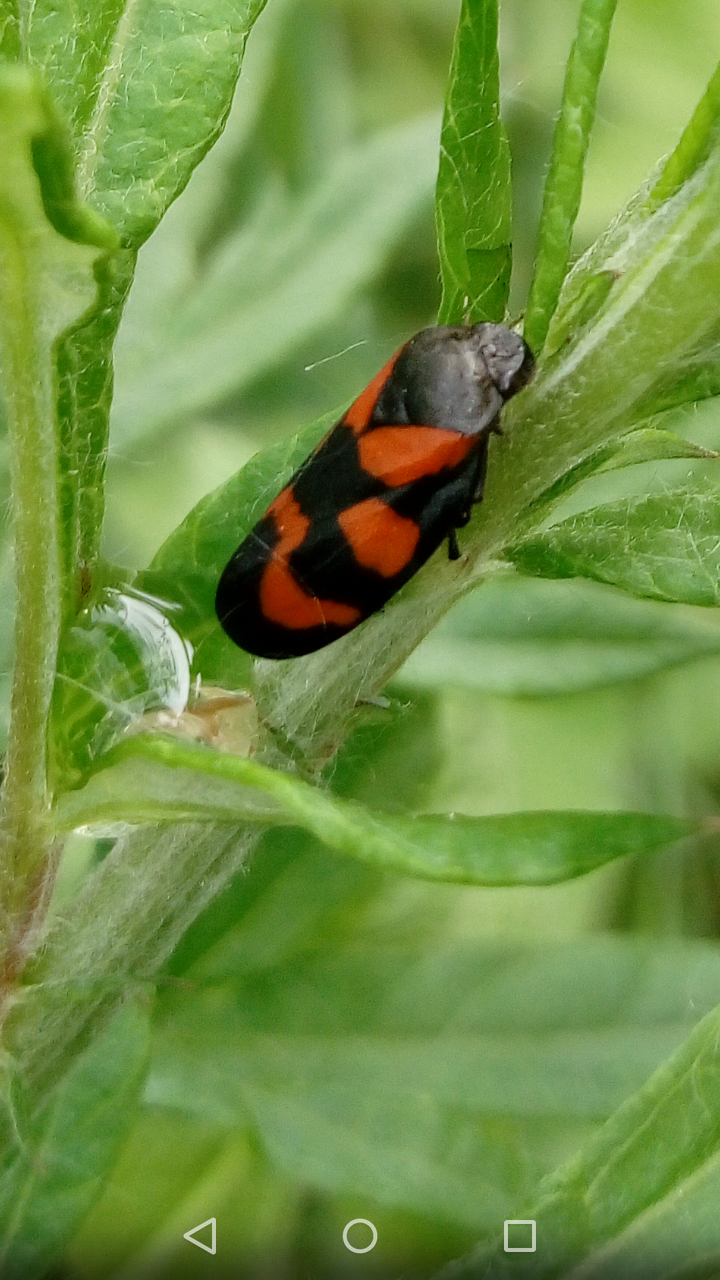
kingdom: Animalia
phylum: Arthropoda
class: Insecta
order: Hemiptera
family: Cercopidae
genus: Cercopis
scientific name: Cercopis vulnerata
